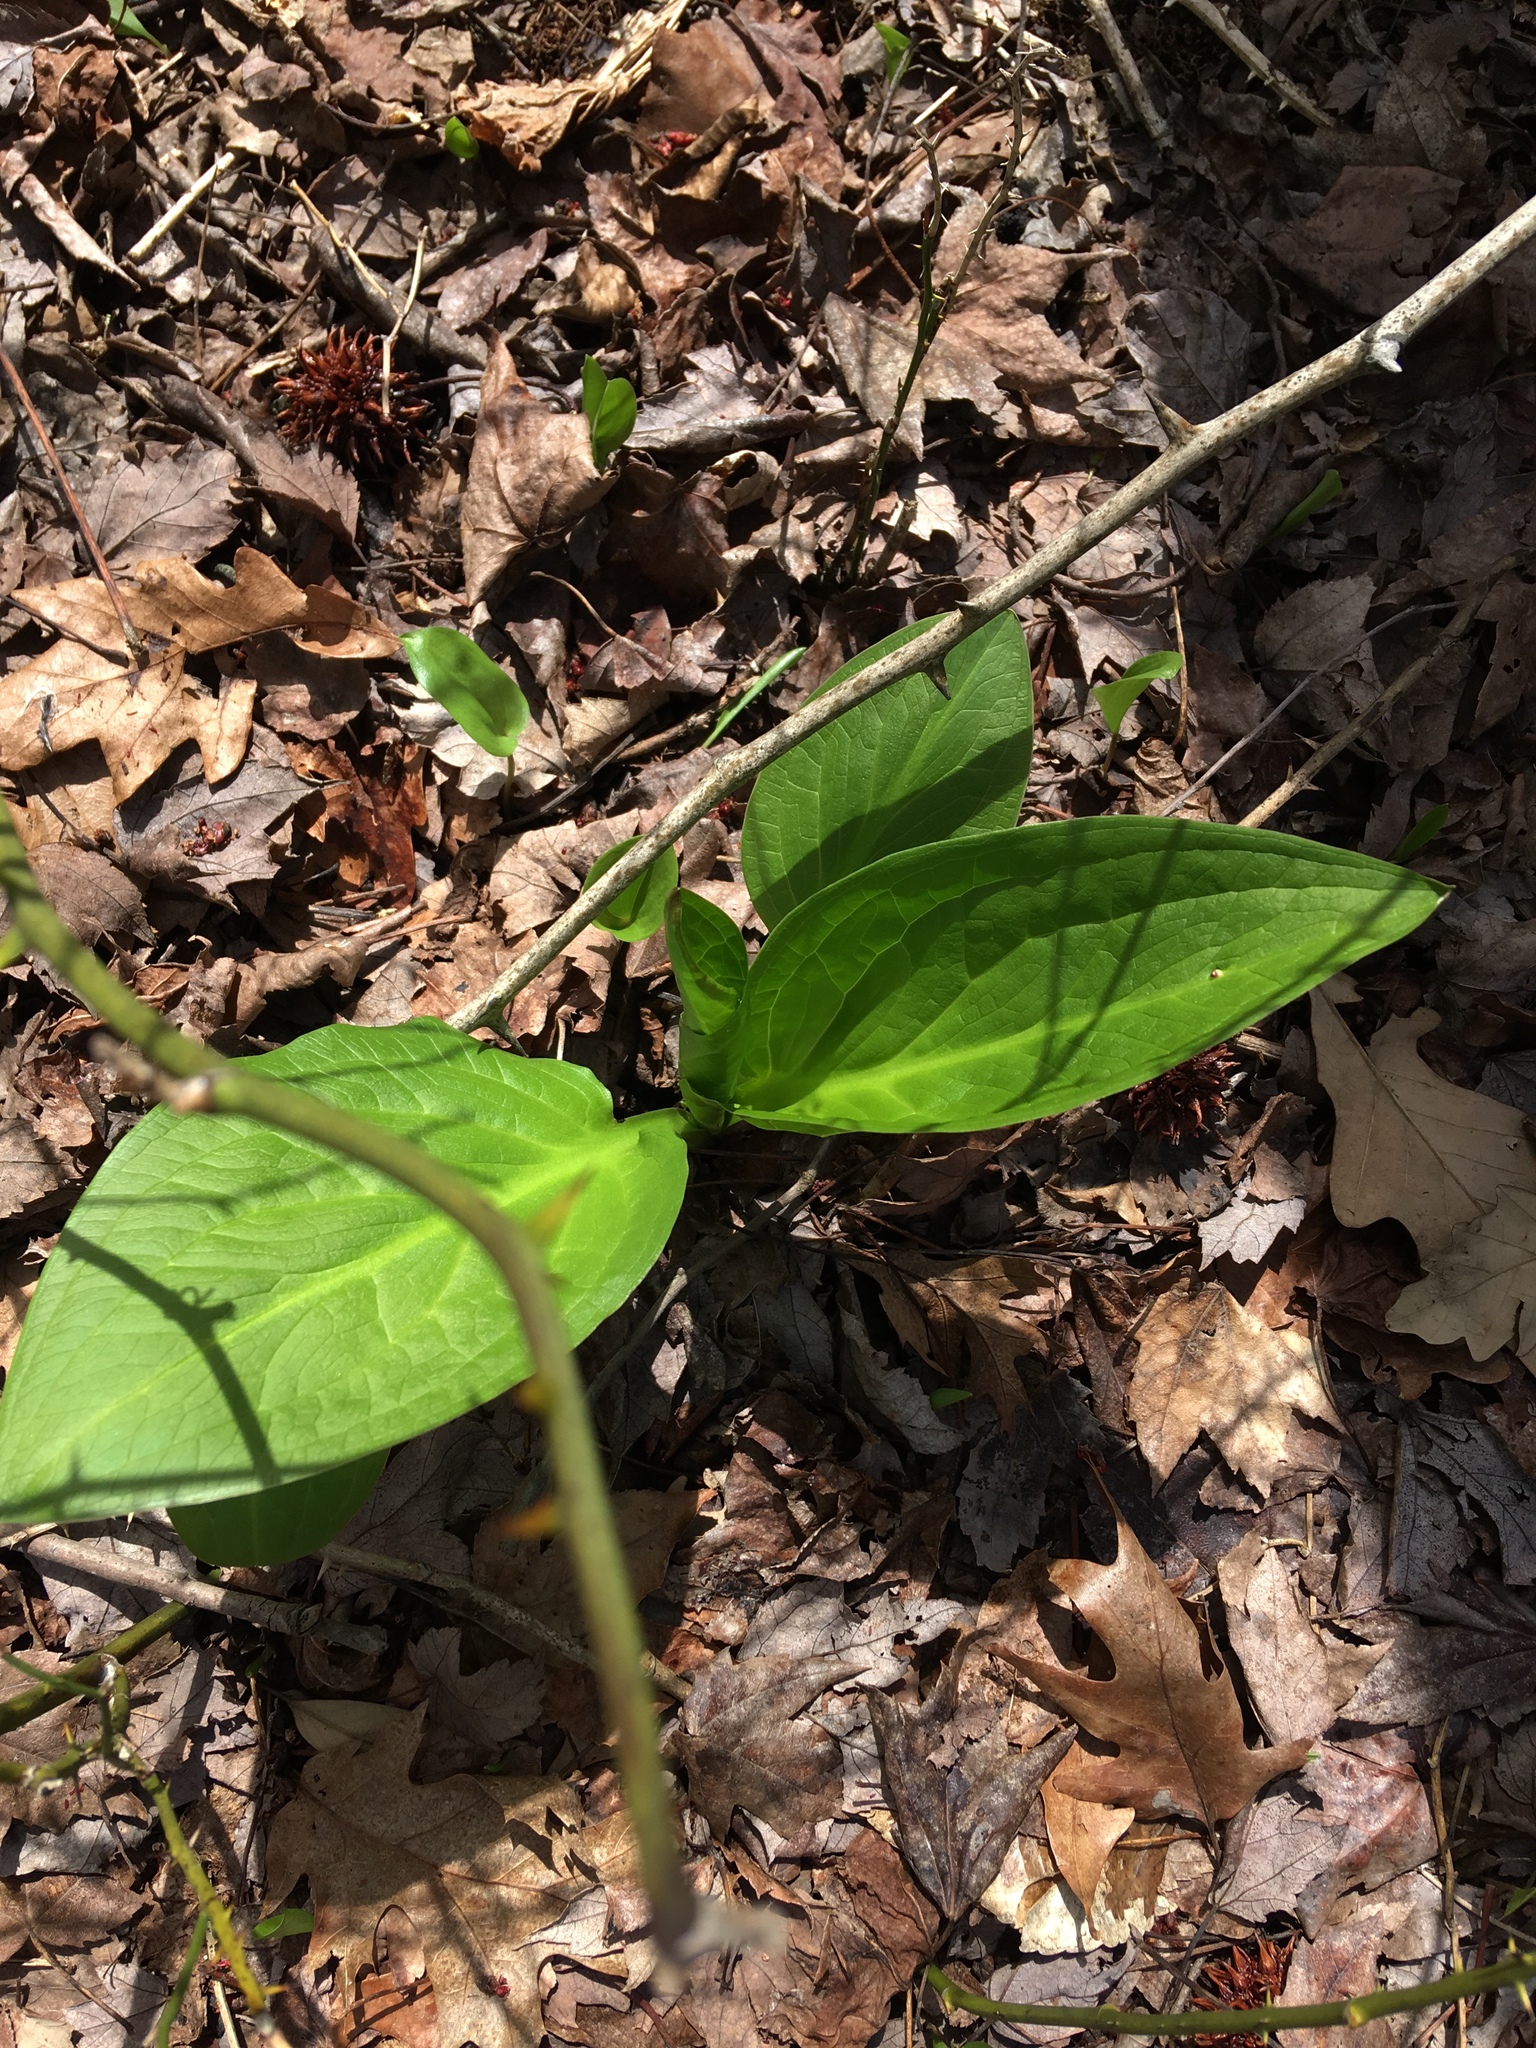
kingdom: Plantae
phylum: Tracheophyta
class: Liliopsida
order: Alismatales
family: Araceae
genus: Symplocarpus
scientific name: Symplocarpus foetidus
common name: Eastern skunk cabbage
